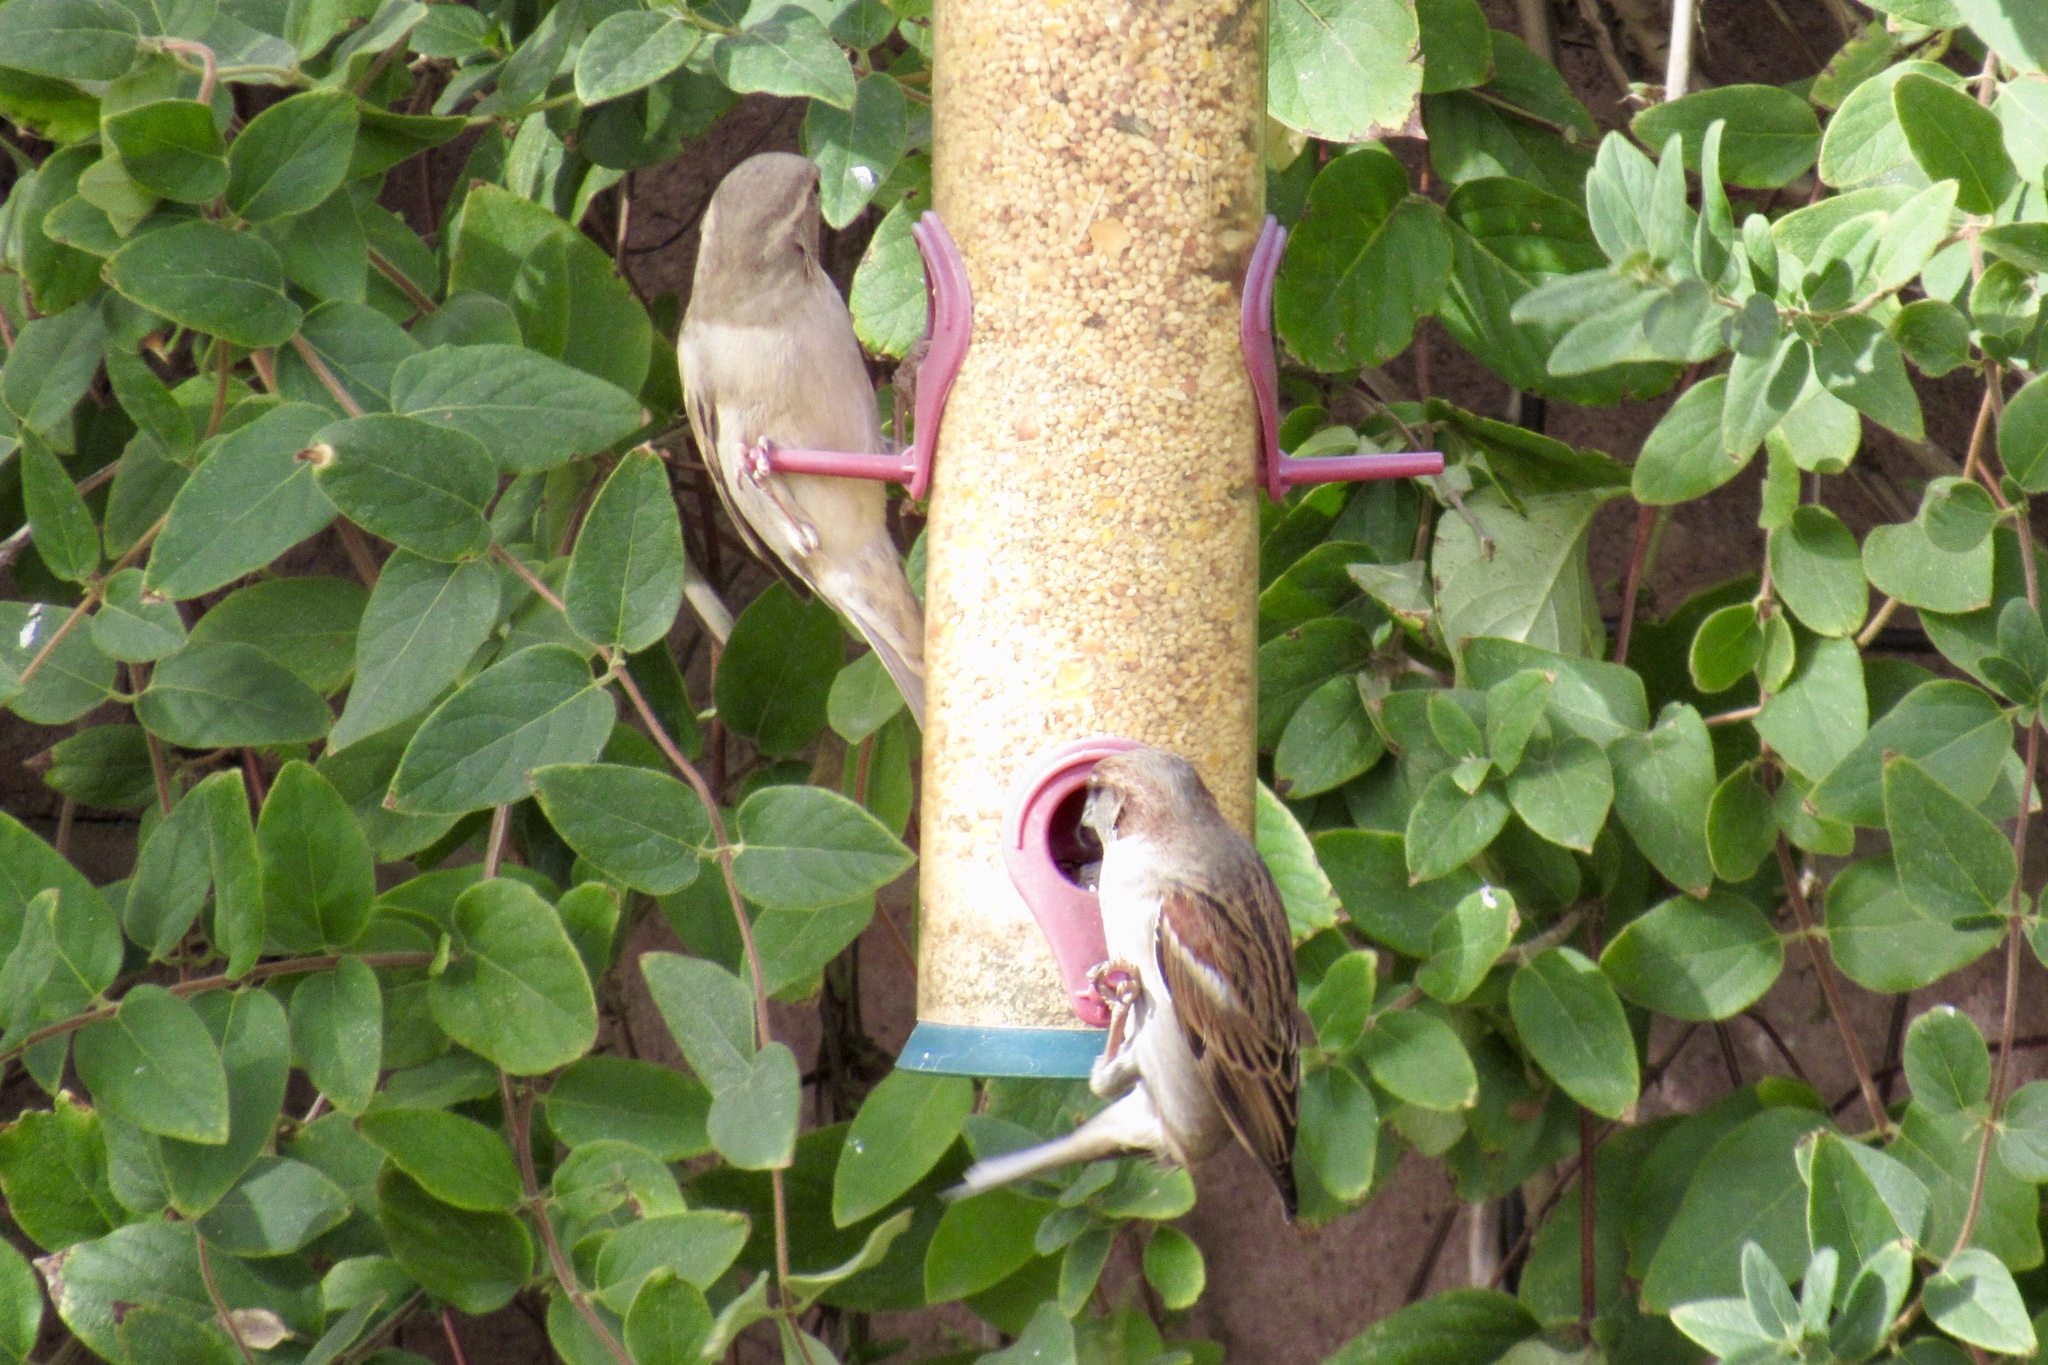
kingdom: Animalia
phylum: Chordata
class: Aves
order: Passeriformes
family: Passeridae
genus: Passer
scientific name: Passer domesticus
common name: House sparrow
